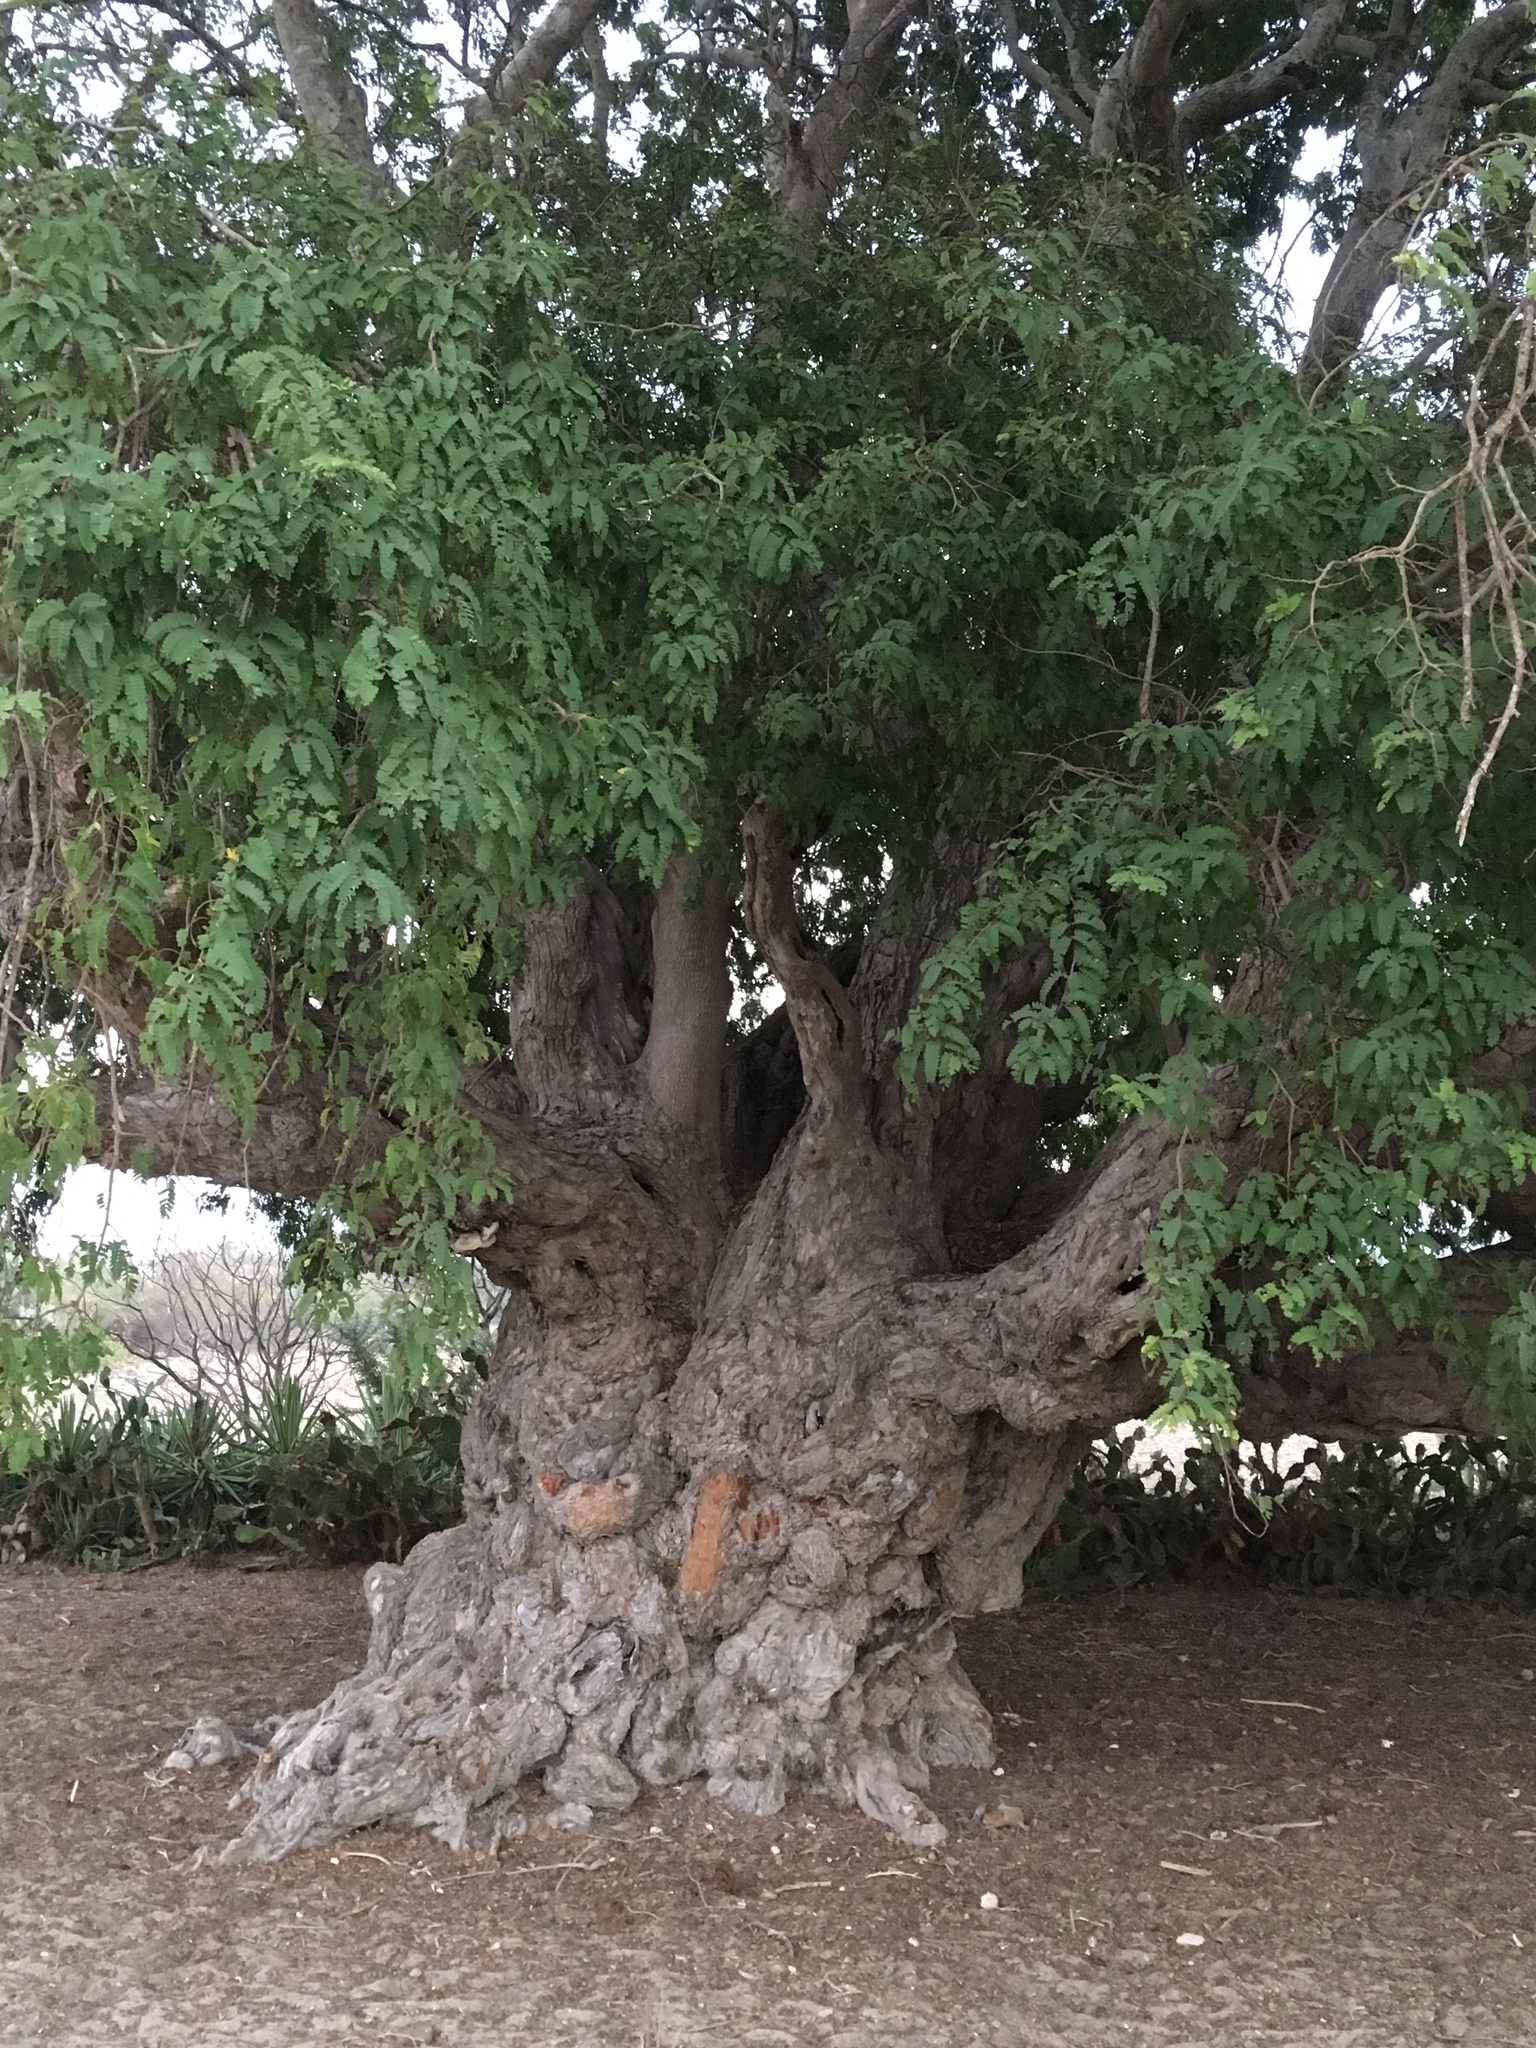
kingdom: Plantae
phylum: Tracheophyta
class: Magnoliopsida
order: Fabales
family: Fabaceae
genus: Tamarindus
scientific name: Tamarindus indica
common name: Tamarind
